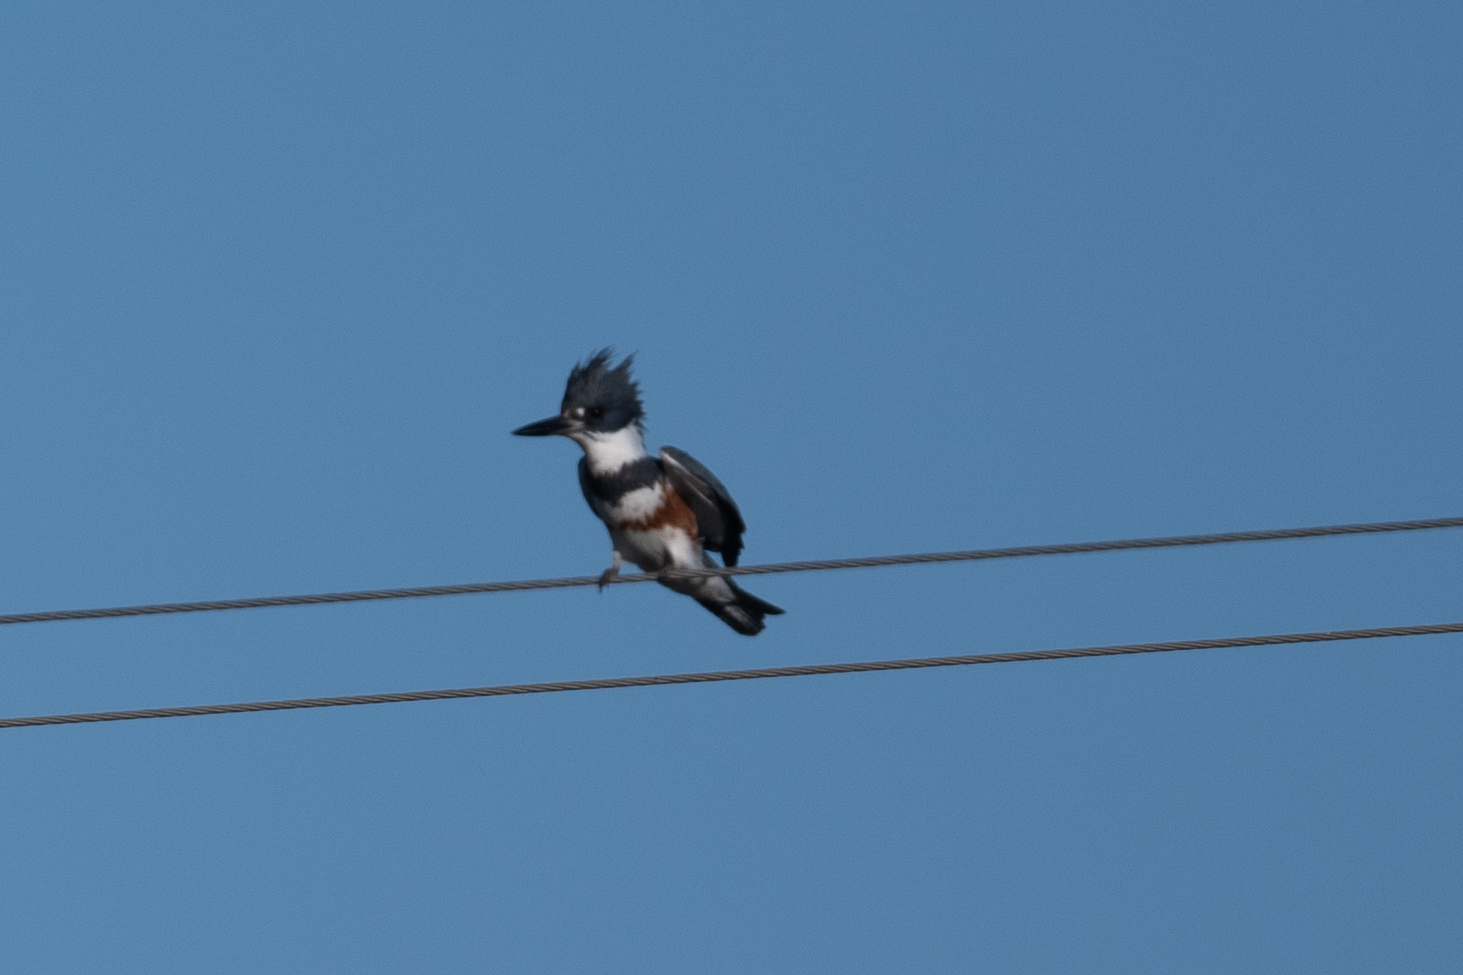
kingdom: Animalia
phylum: Chordata
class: Aves
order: Coraciiformes
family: Alcedinidae
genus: Megaceryle
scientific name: Megaceryle alcyon
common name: Belted kingfisher
